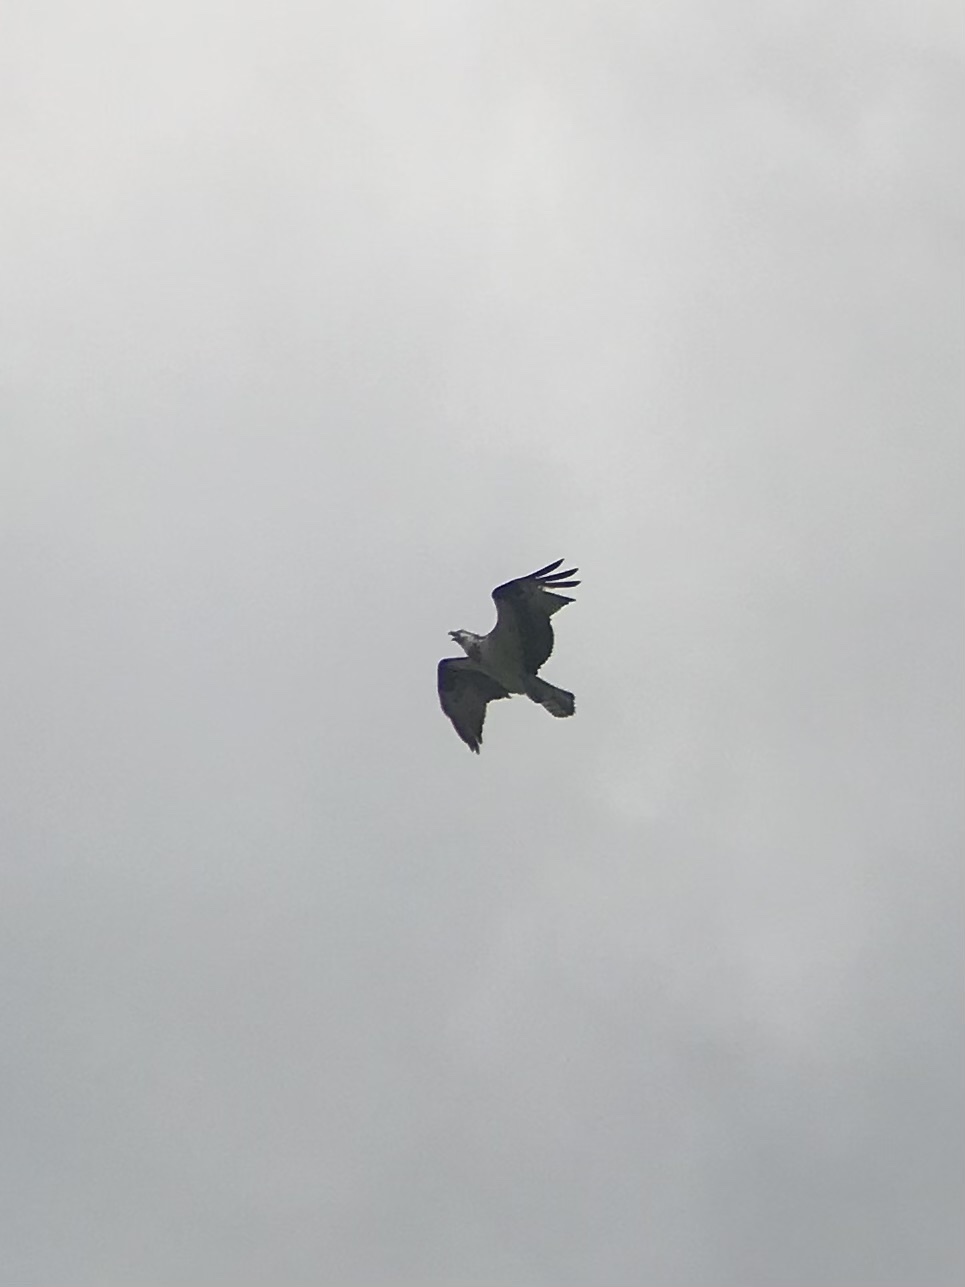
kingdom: Animalia
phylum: Chordata
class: Aves
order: Accipitriformes
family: Pandionidae
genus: Pandion
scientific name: Pandion haliaetus
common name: Osprey
